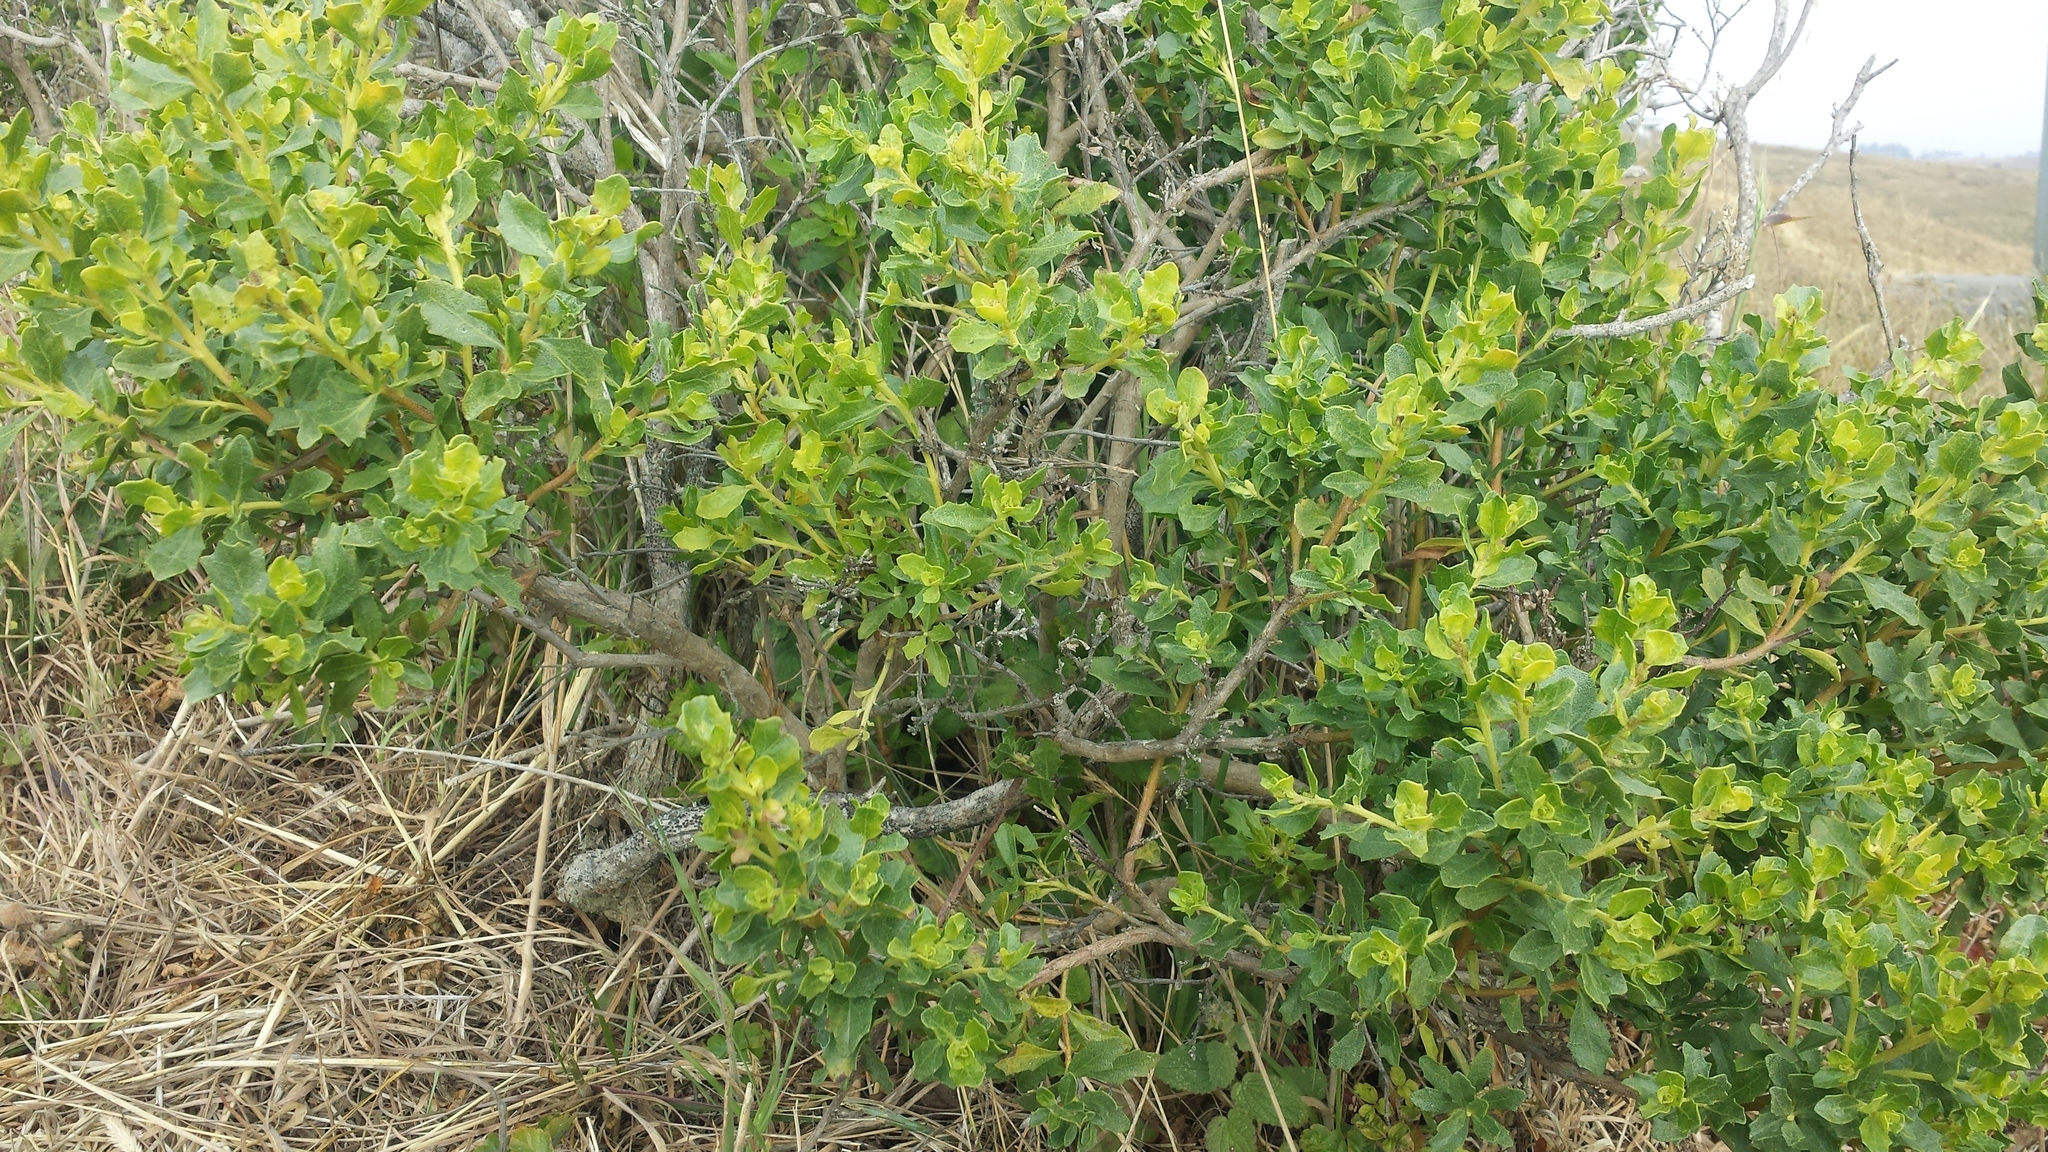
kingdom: Plantae
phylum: Tracheophyta
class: Magnoliopsida
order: Asterales
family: Asteraceae
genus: Baccharis
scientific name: Baccharis pilularis
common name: Coyotebrush
